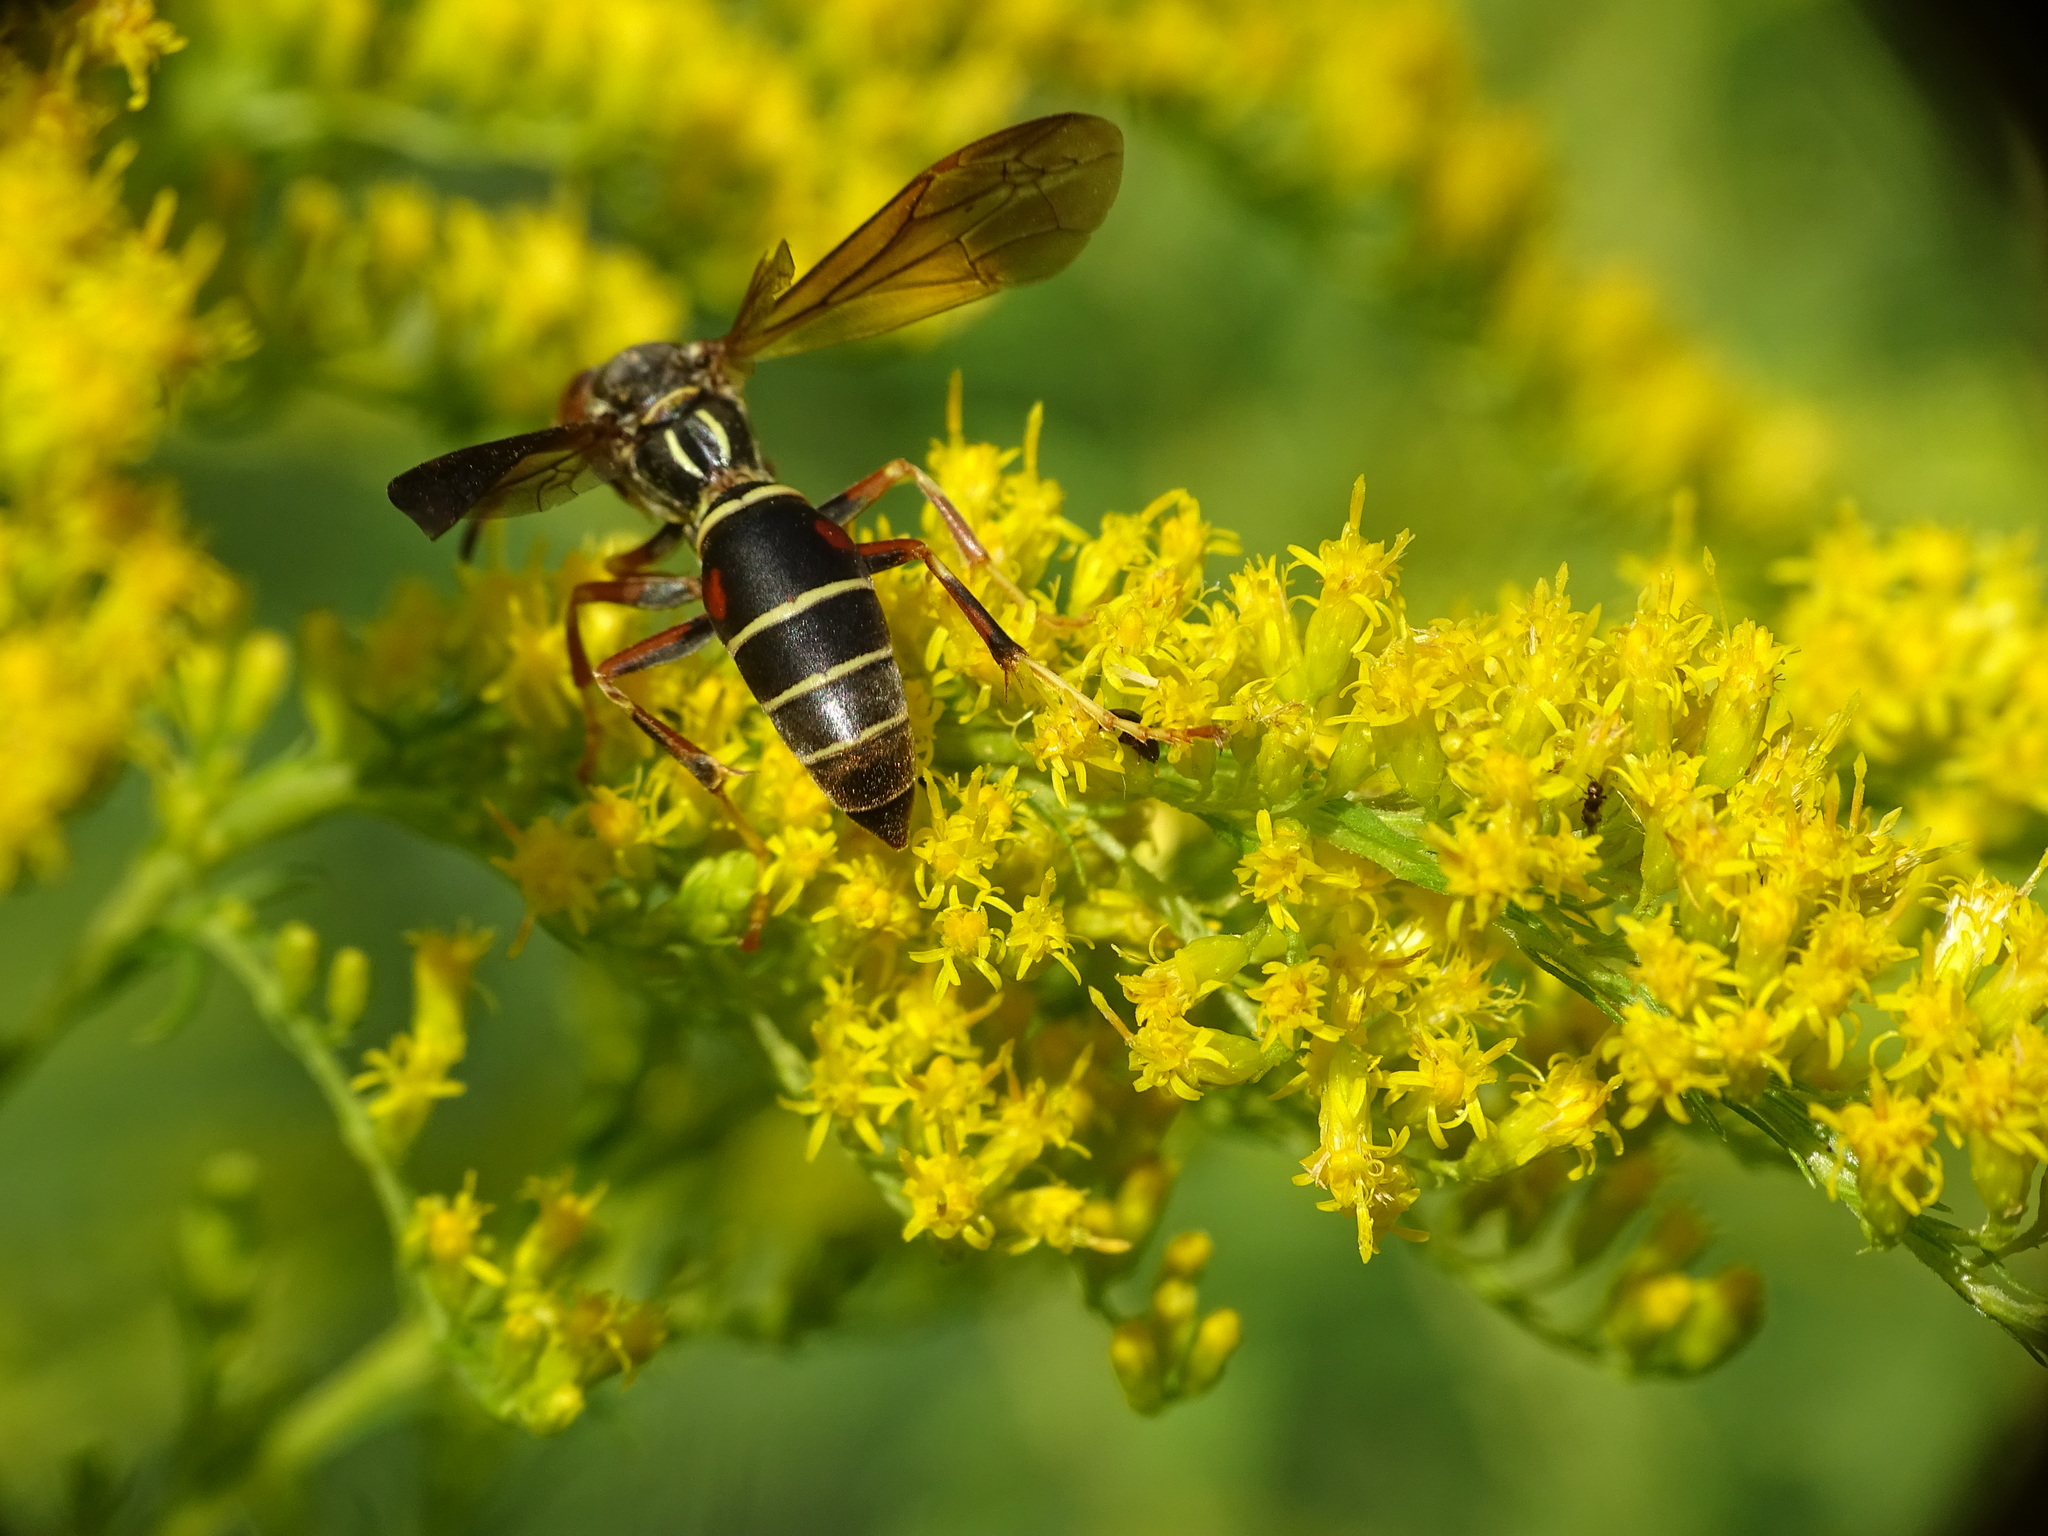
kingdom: Animalia
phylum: Arthropoda
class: Insecta
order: Hymenoptera
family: Eumenidae
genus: Polistes
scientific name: Polistes fuscatus
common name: Dark paper wasp
